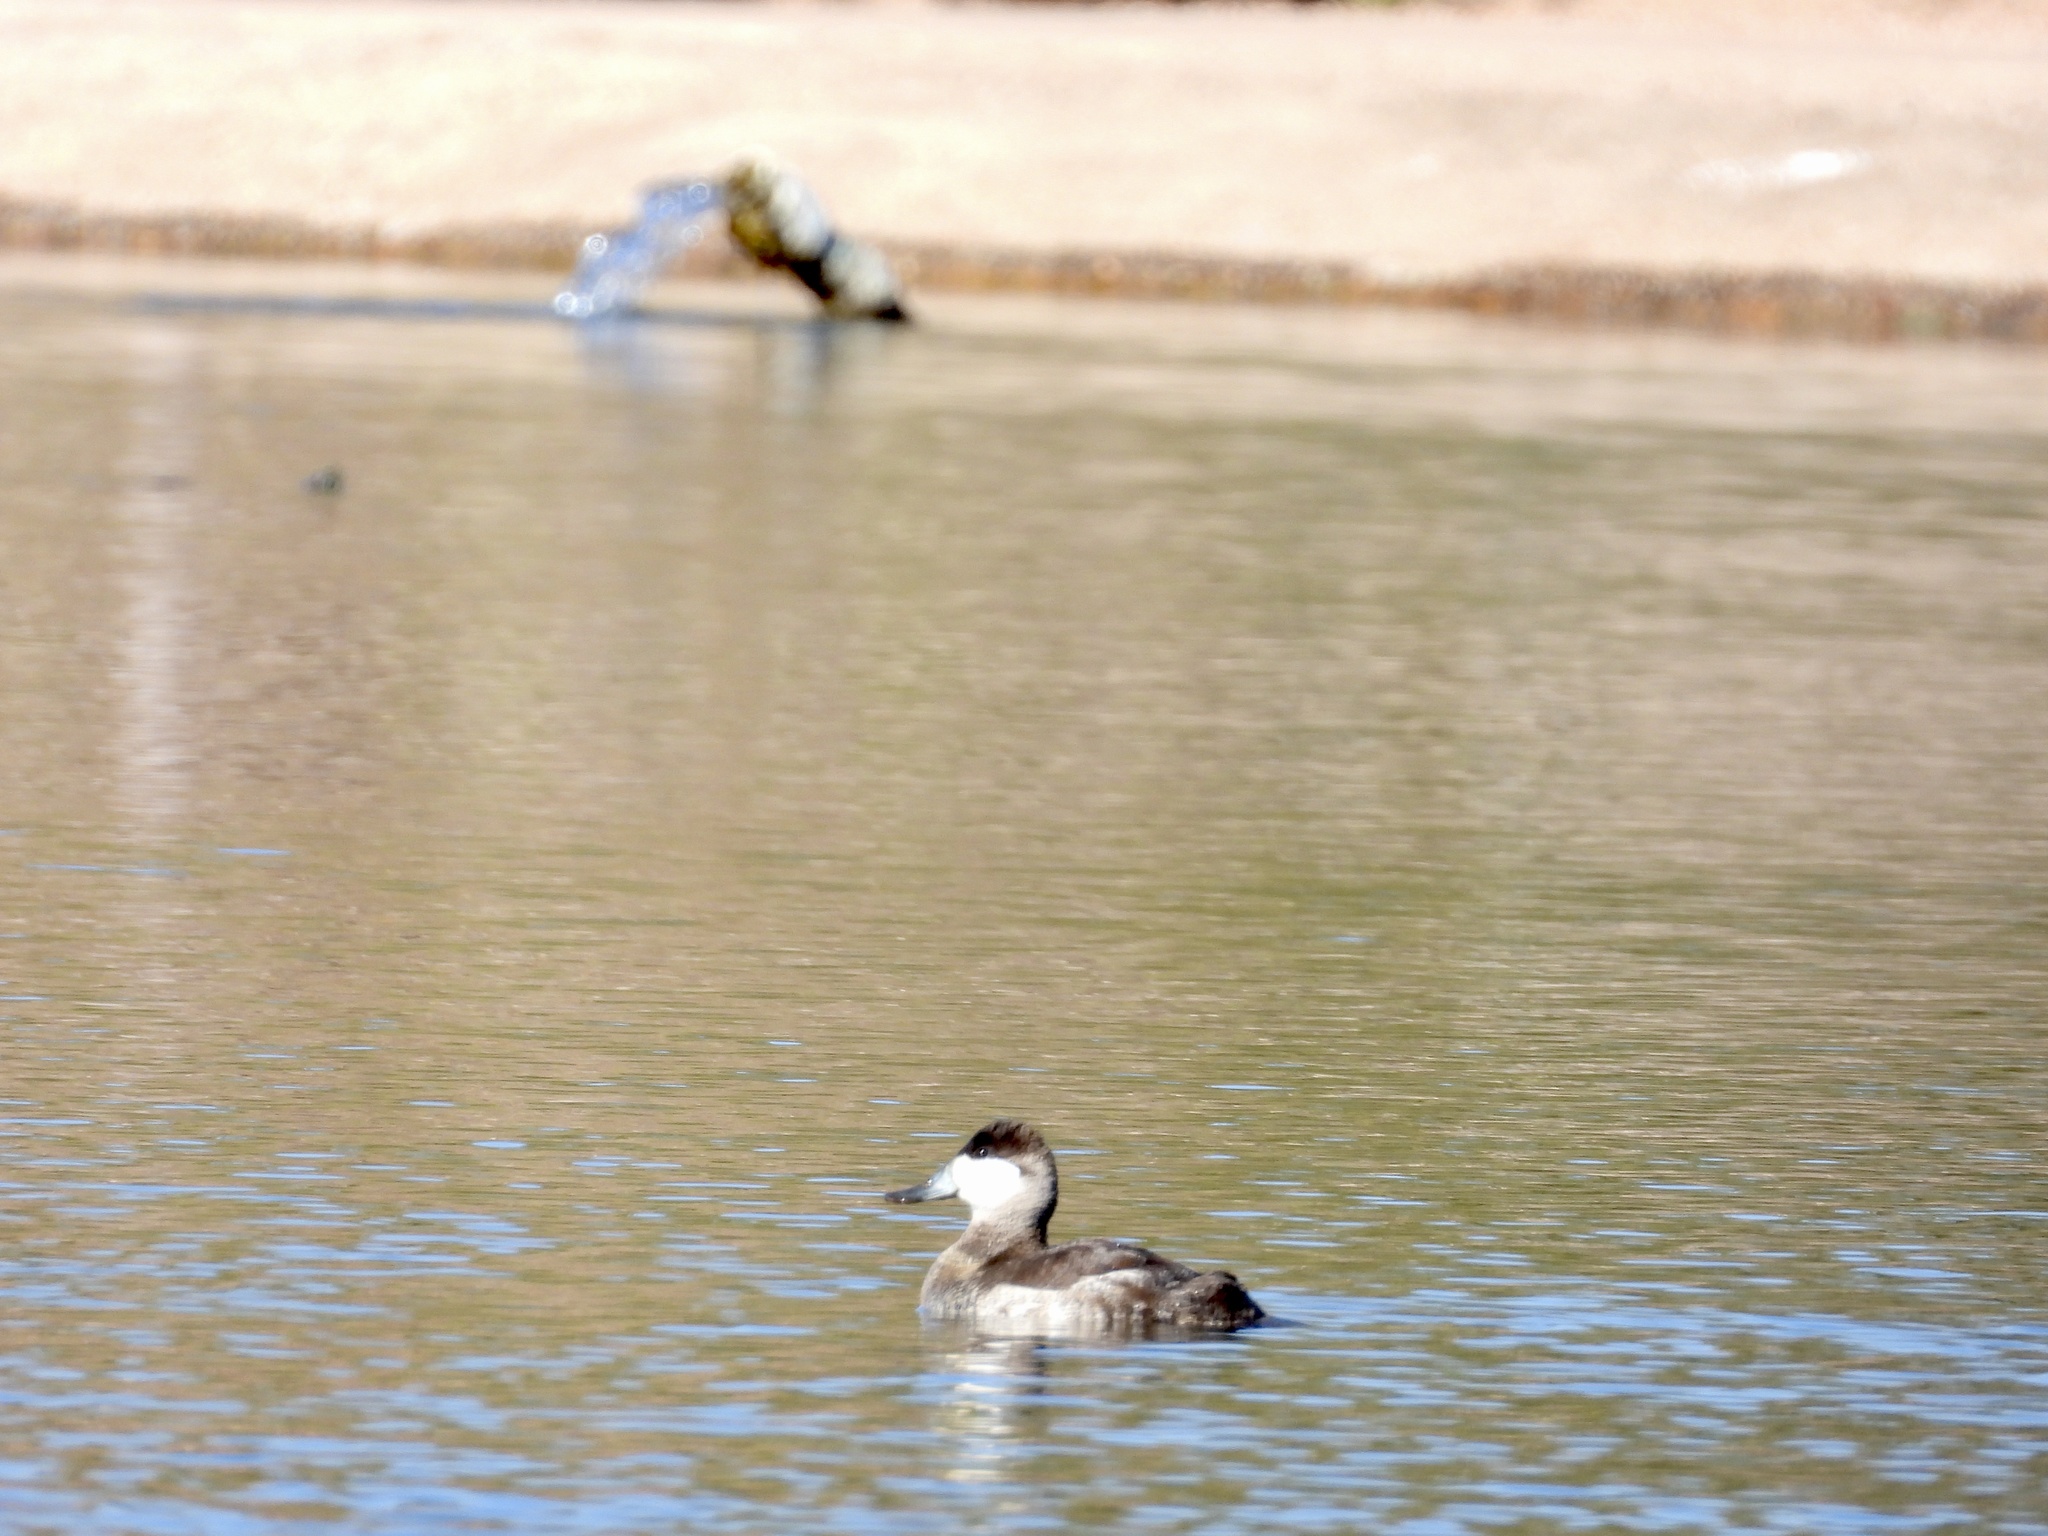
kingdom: Animalia
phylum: Chordata
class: Aves
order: Anseriformes
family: Anatidae
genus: Oxyura
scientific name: Oxyura jamaicensis
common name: Ruddy duck
